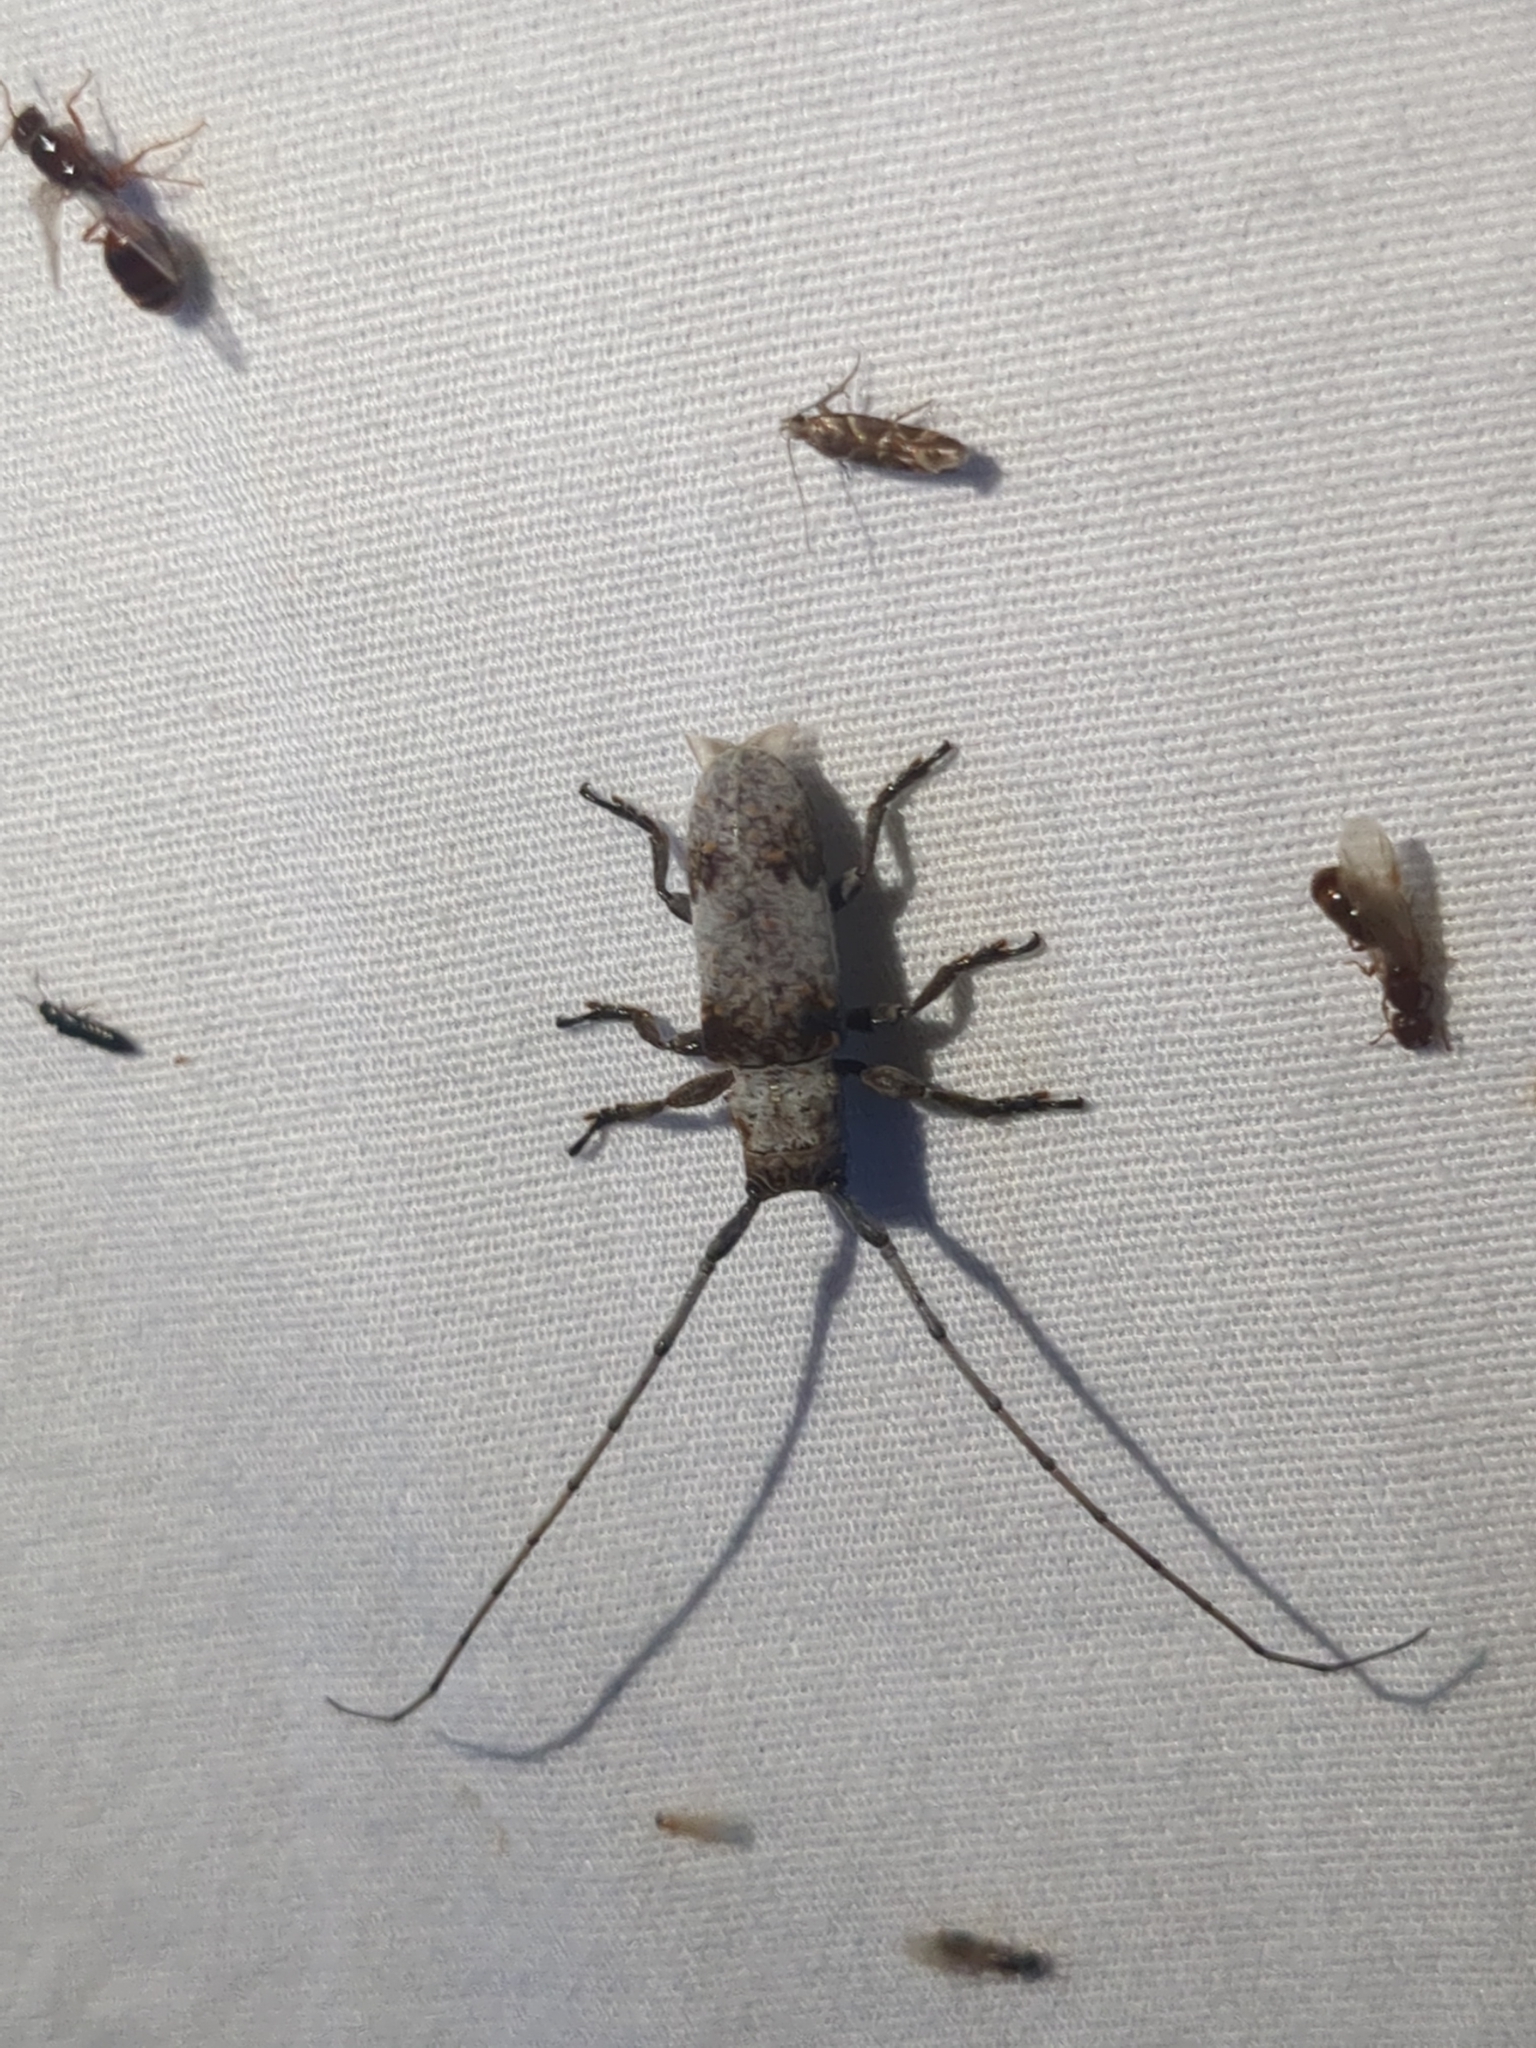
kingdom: Animalia
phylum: Arthropoda
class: Insecta
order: Coleoptera
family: Cerambycidae
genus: Oncideres
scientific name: Oncideres cingulata
